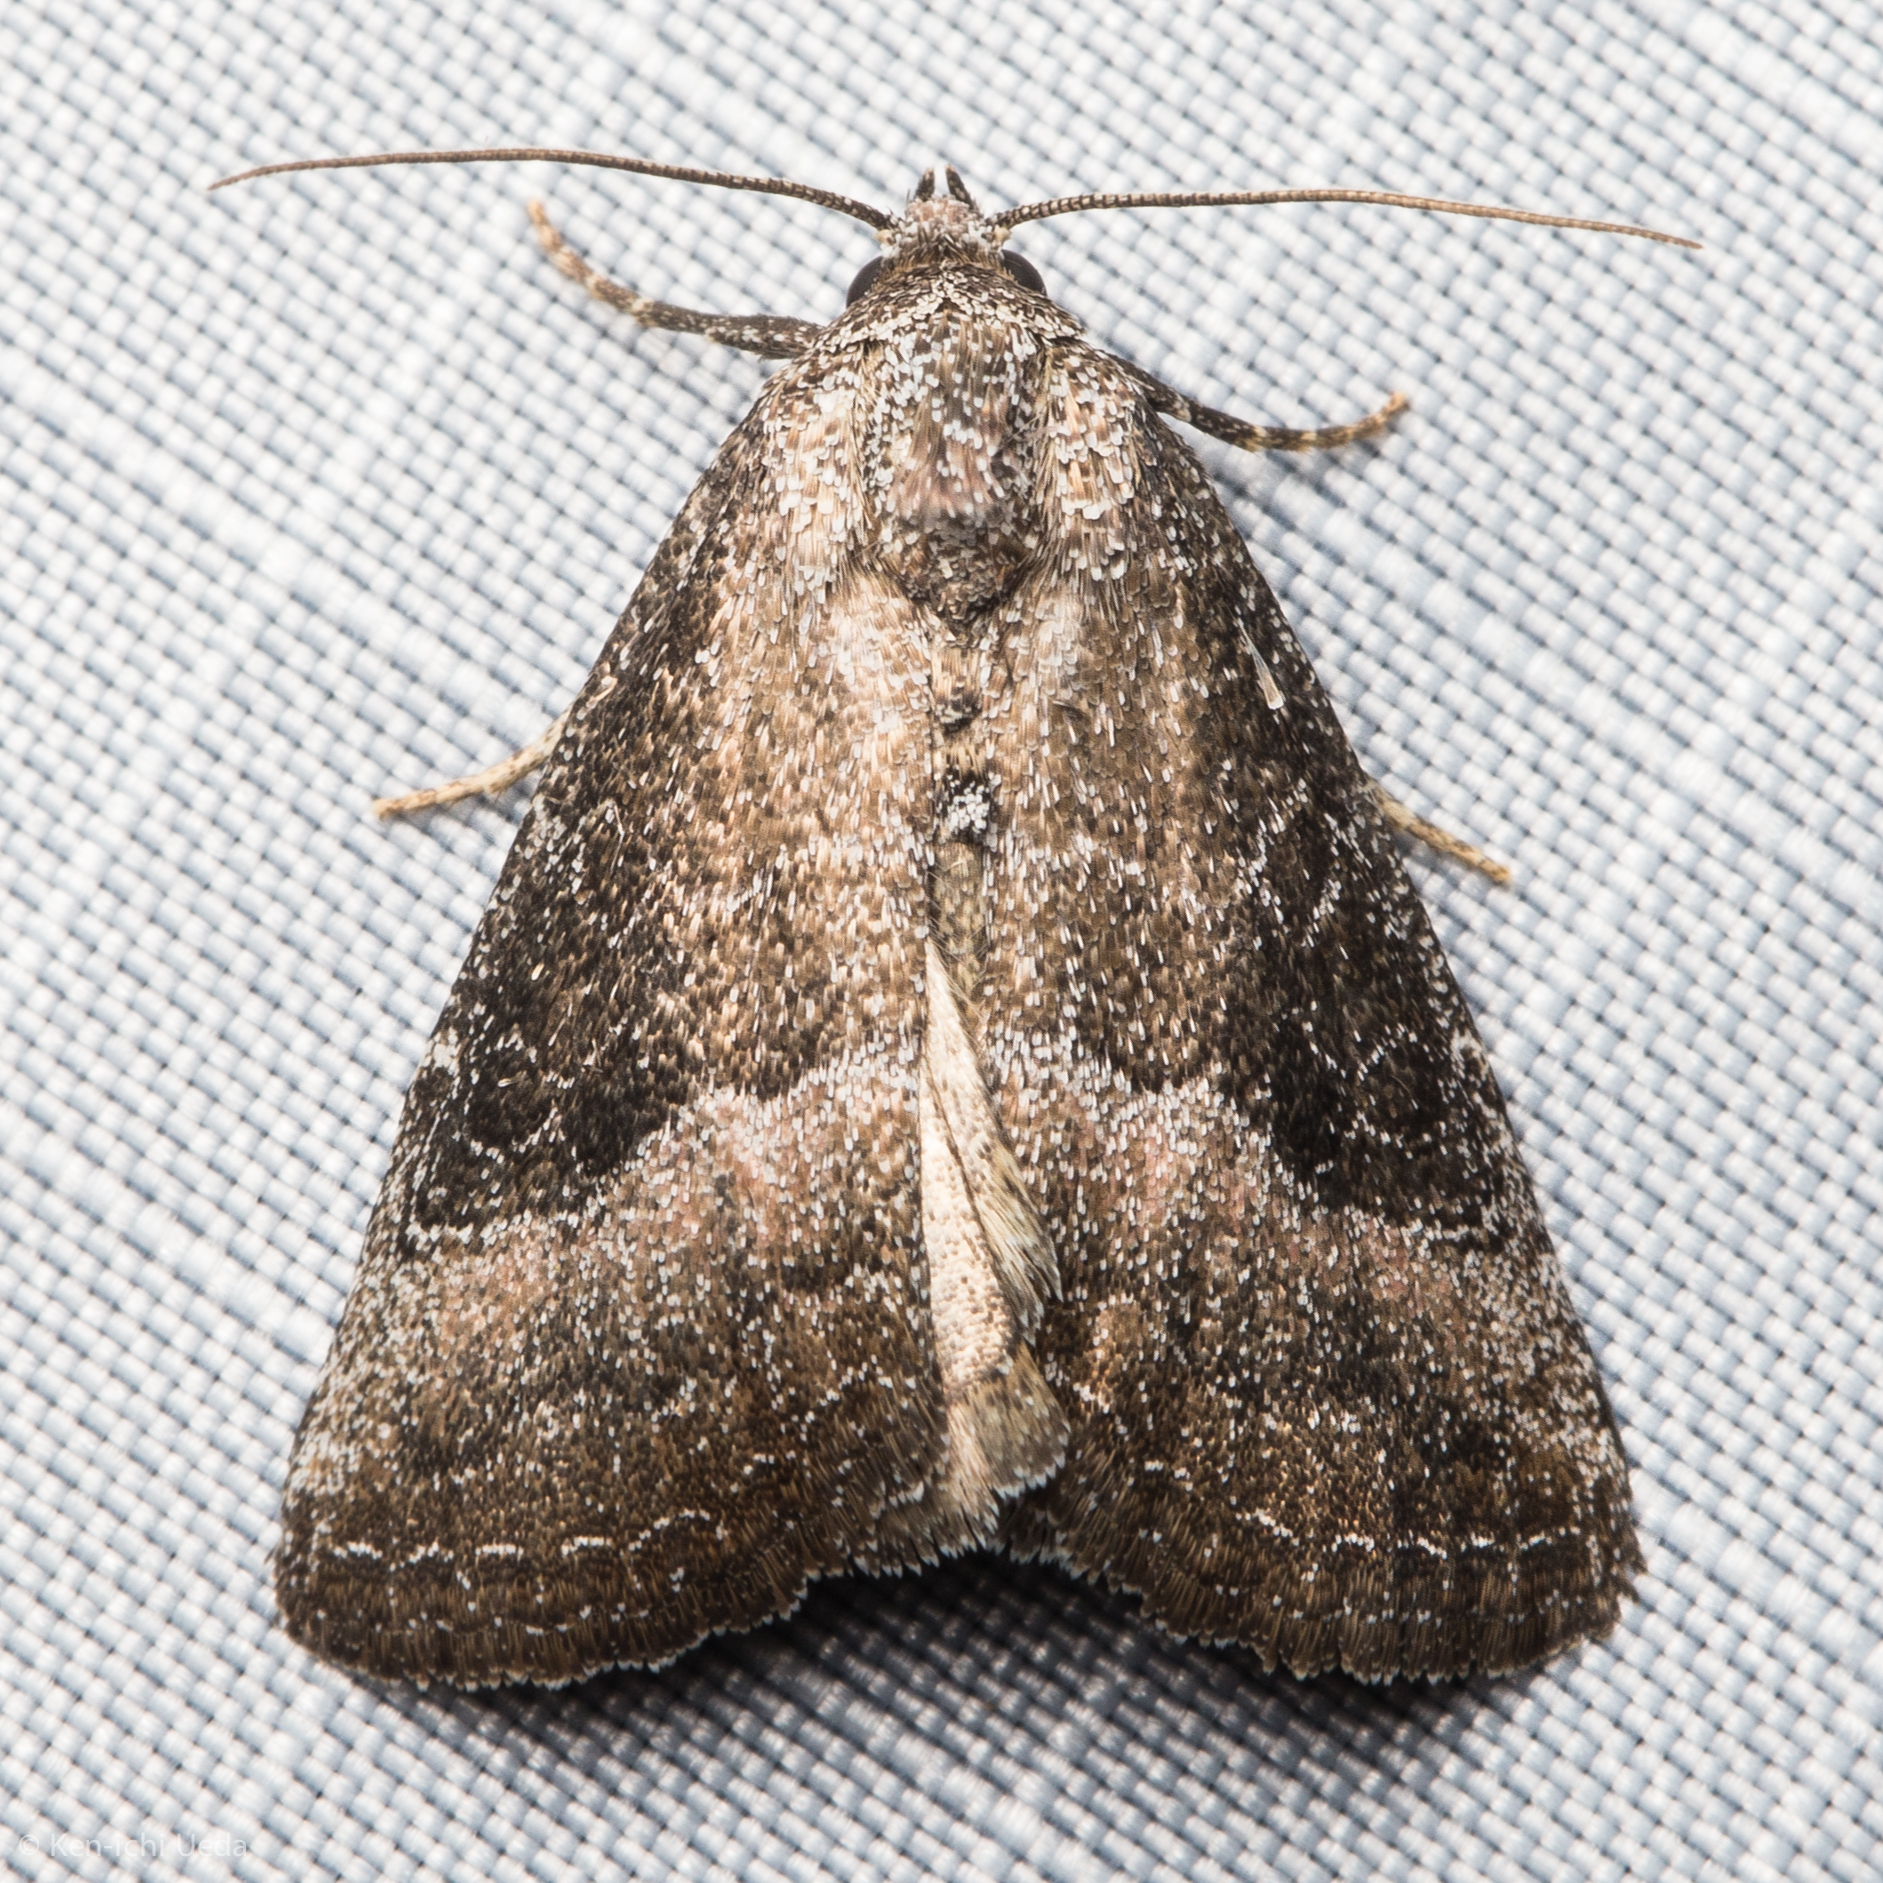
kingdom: Animalia
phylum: Arthropoda
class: Insecta
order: Lepidoptera
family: Noctuidae
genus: Ogdoconta
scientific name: Ogdoconta cinereola
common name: Common pinkband
